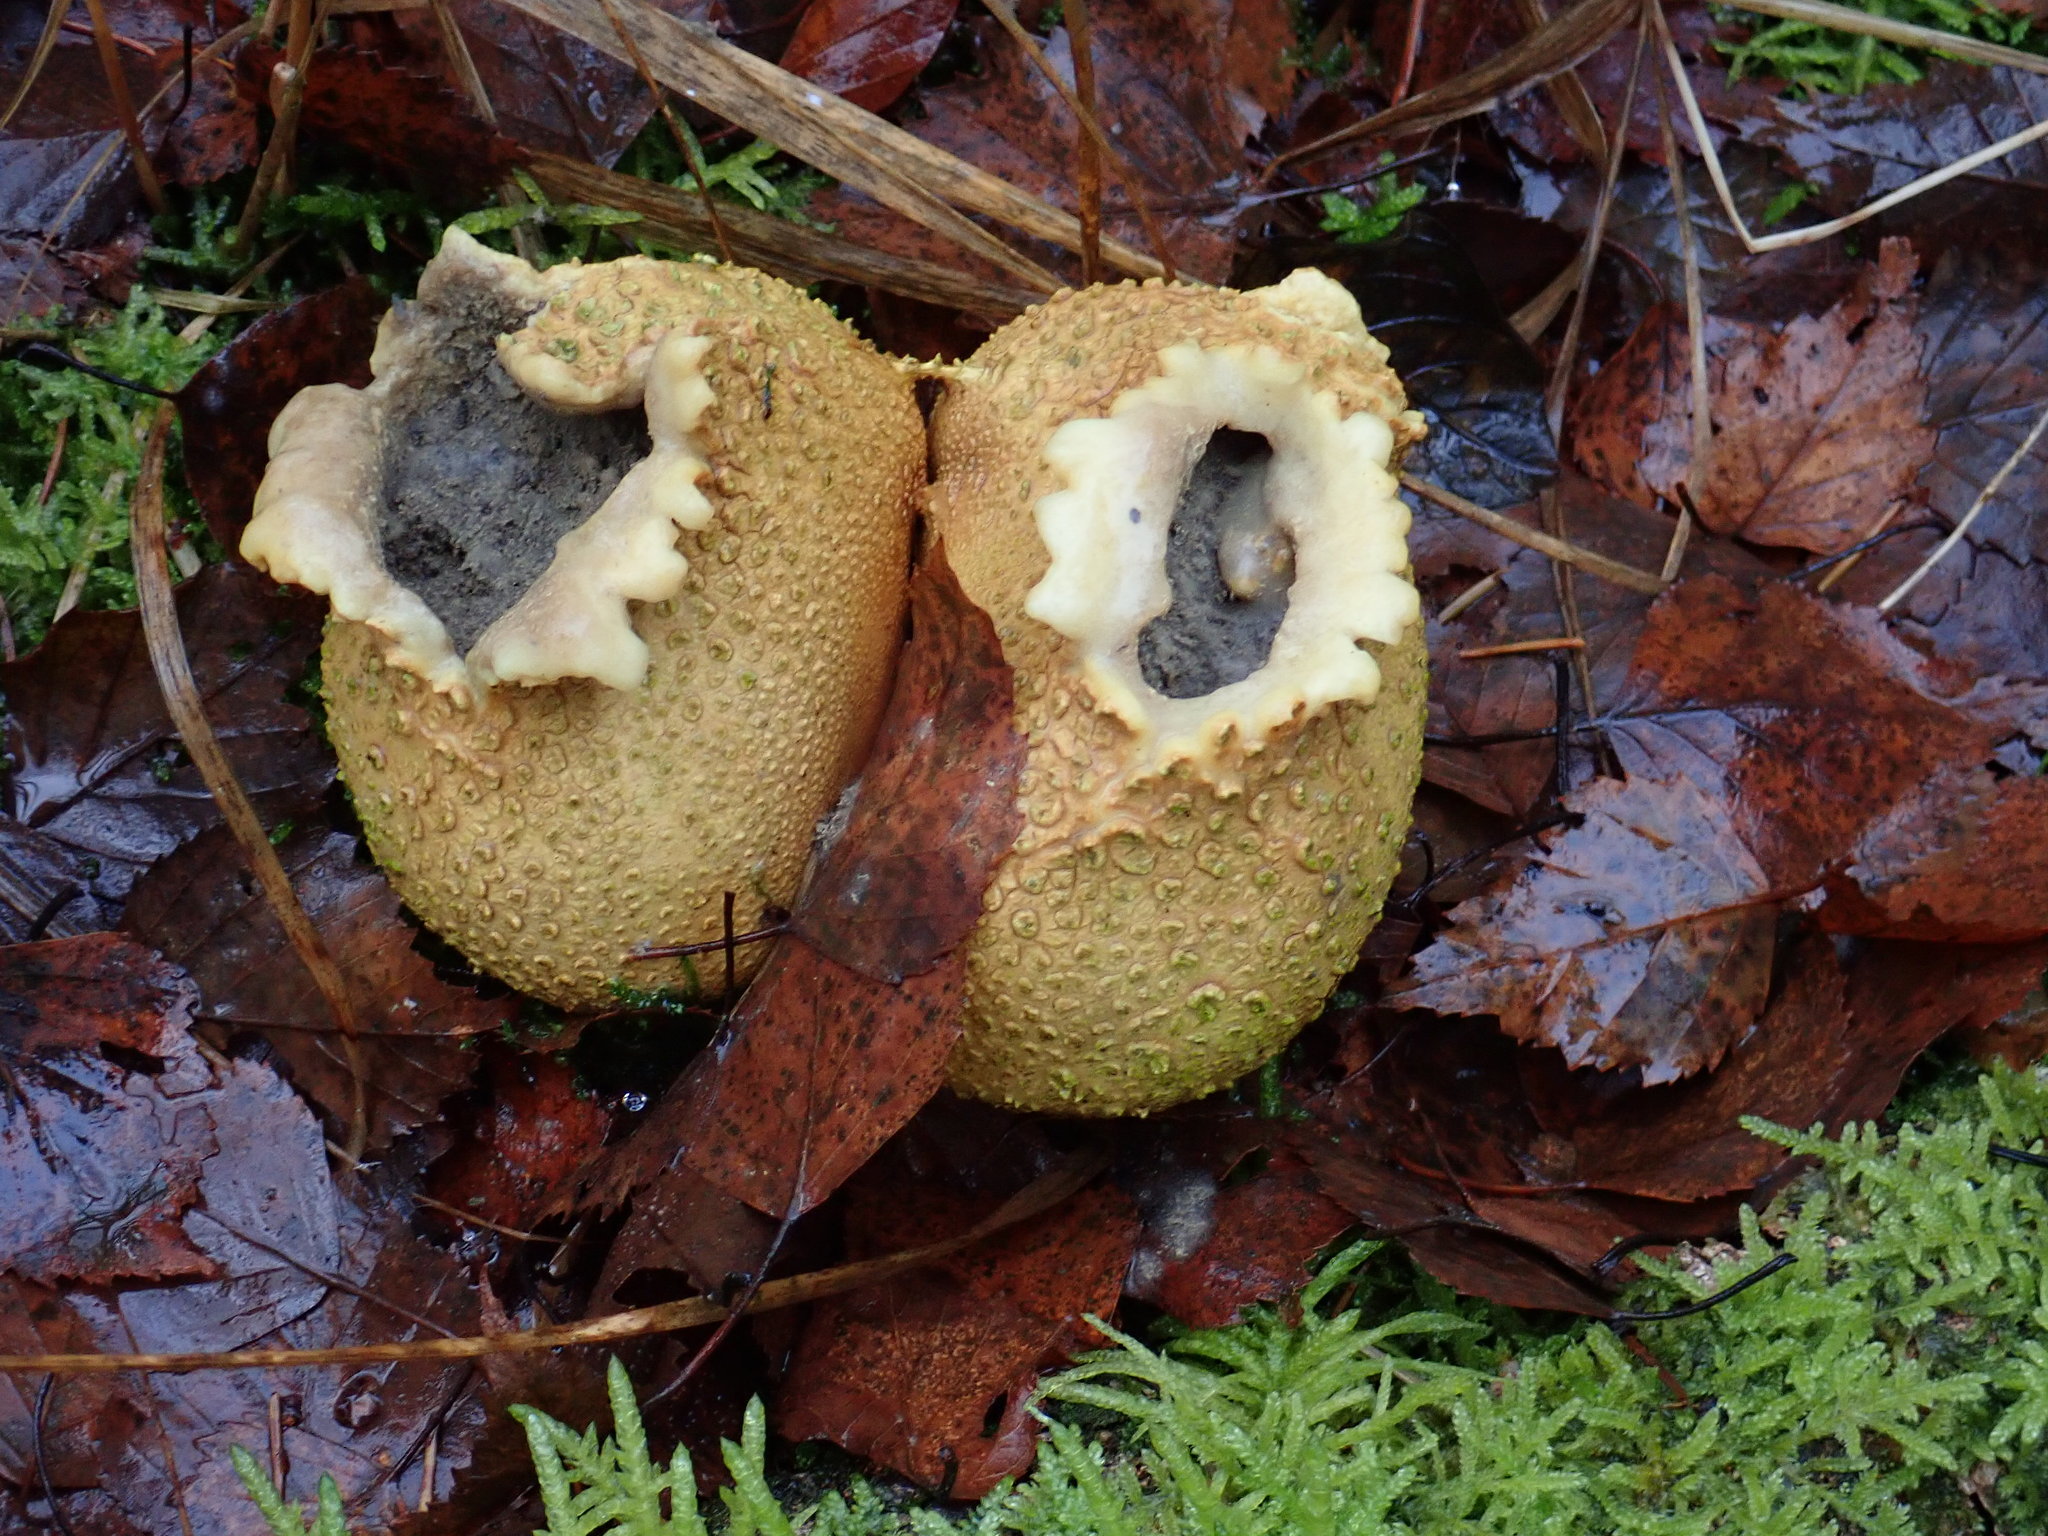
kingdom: Fungi
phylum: Basidiomycota
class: Agaricomycetes
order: Boletales
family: Sclerodermataceae
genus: Scleroderma
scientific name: Scleroderma citrinum
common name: Common earthball
